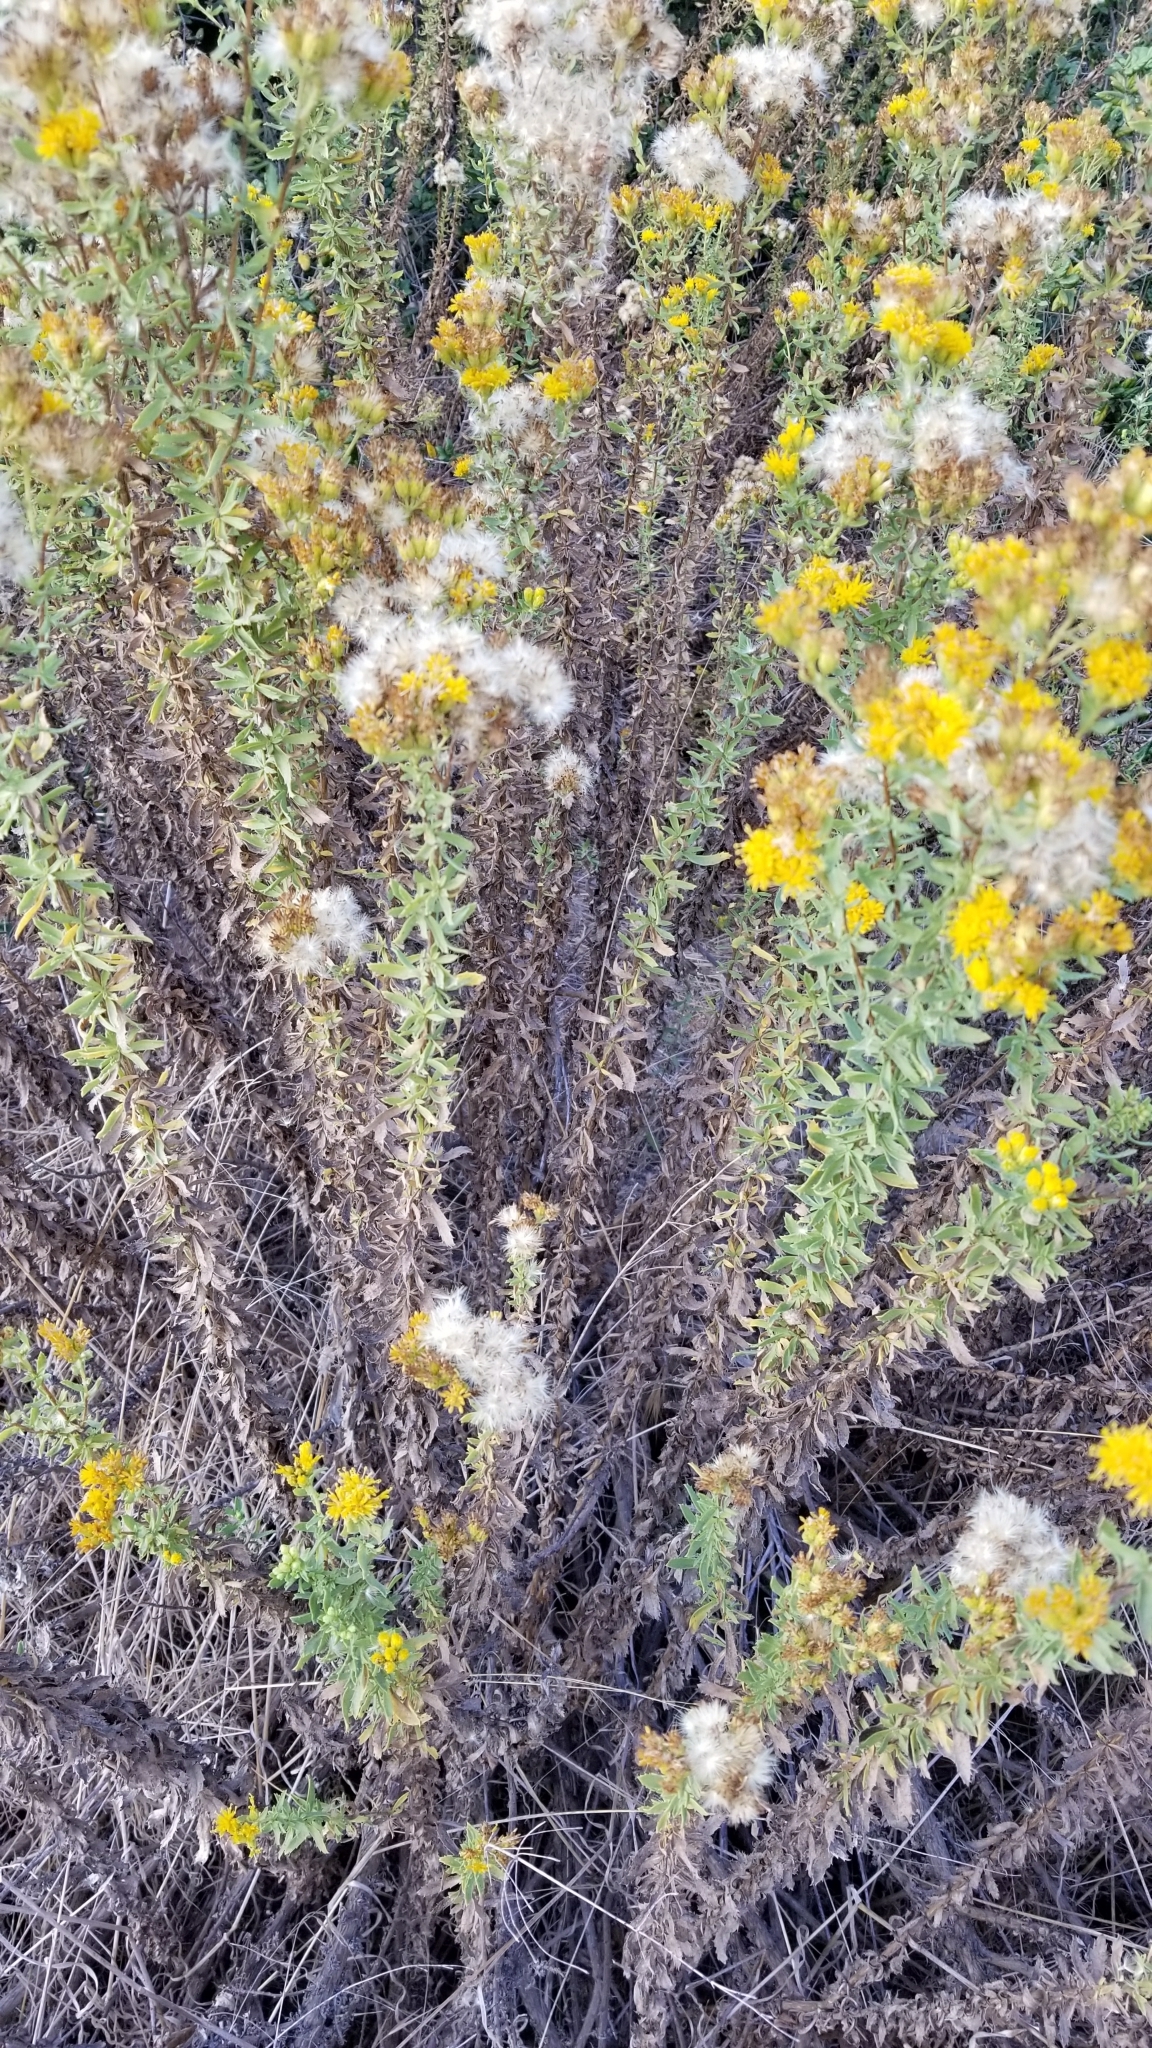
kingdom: Plantae
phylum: Tracheophyta
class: Magnoliopsida
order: Asterales
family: Asteraceae
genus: Isocoma
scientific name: Isocoma menziesii
